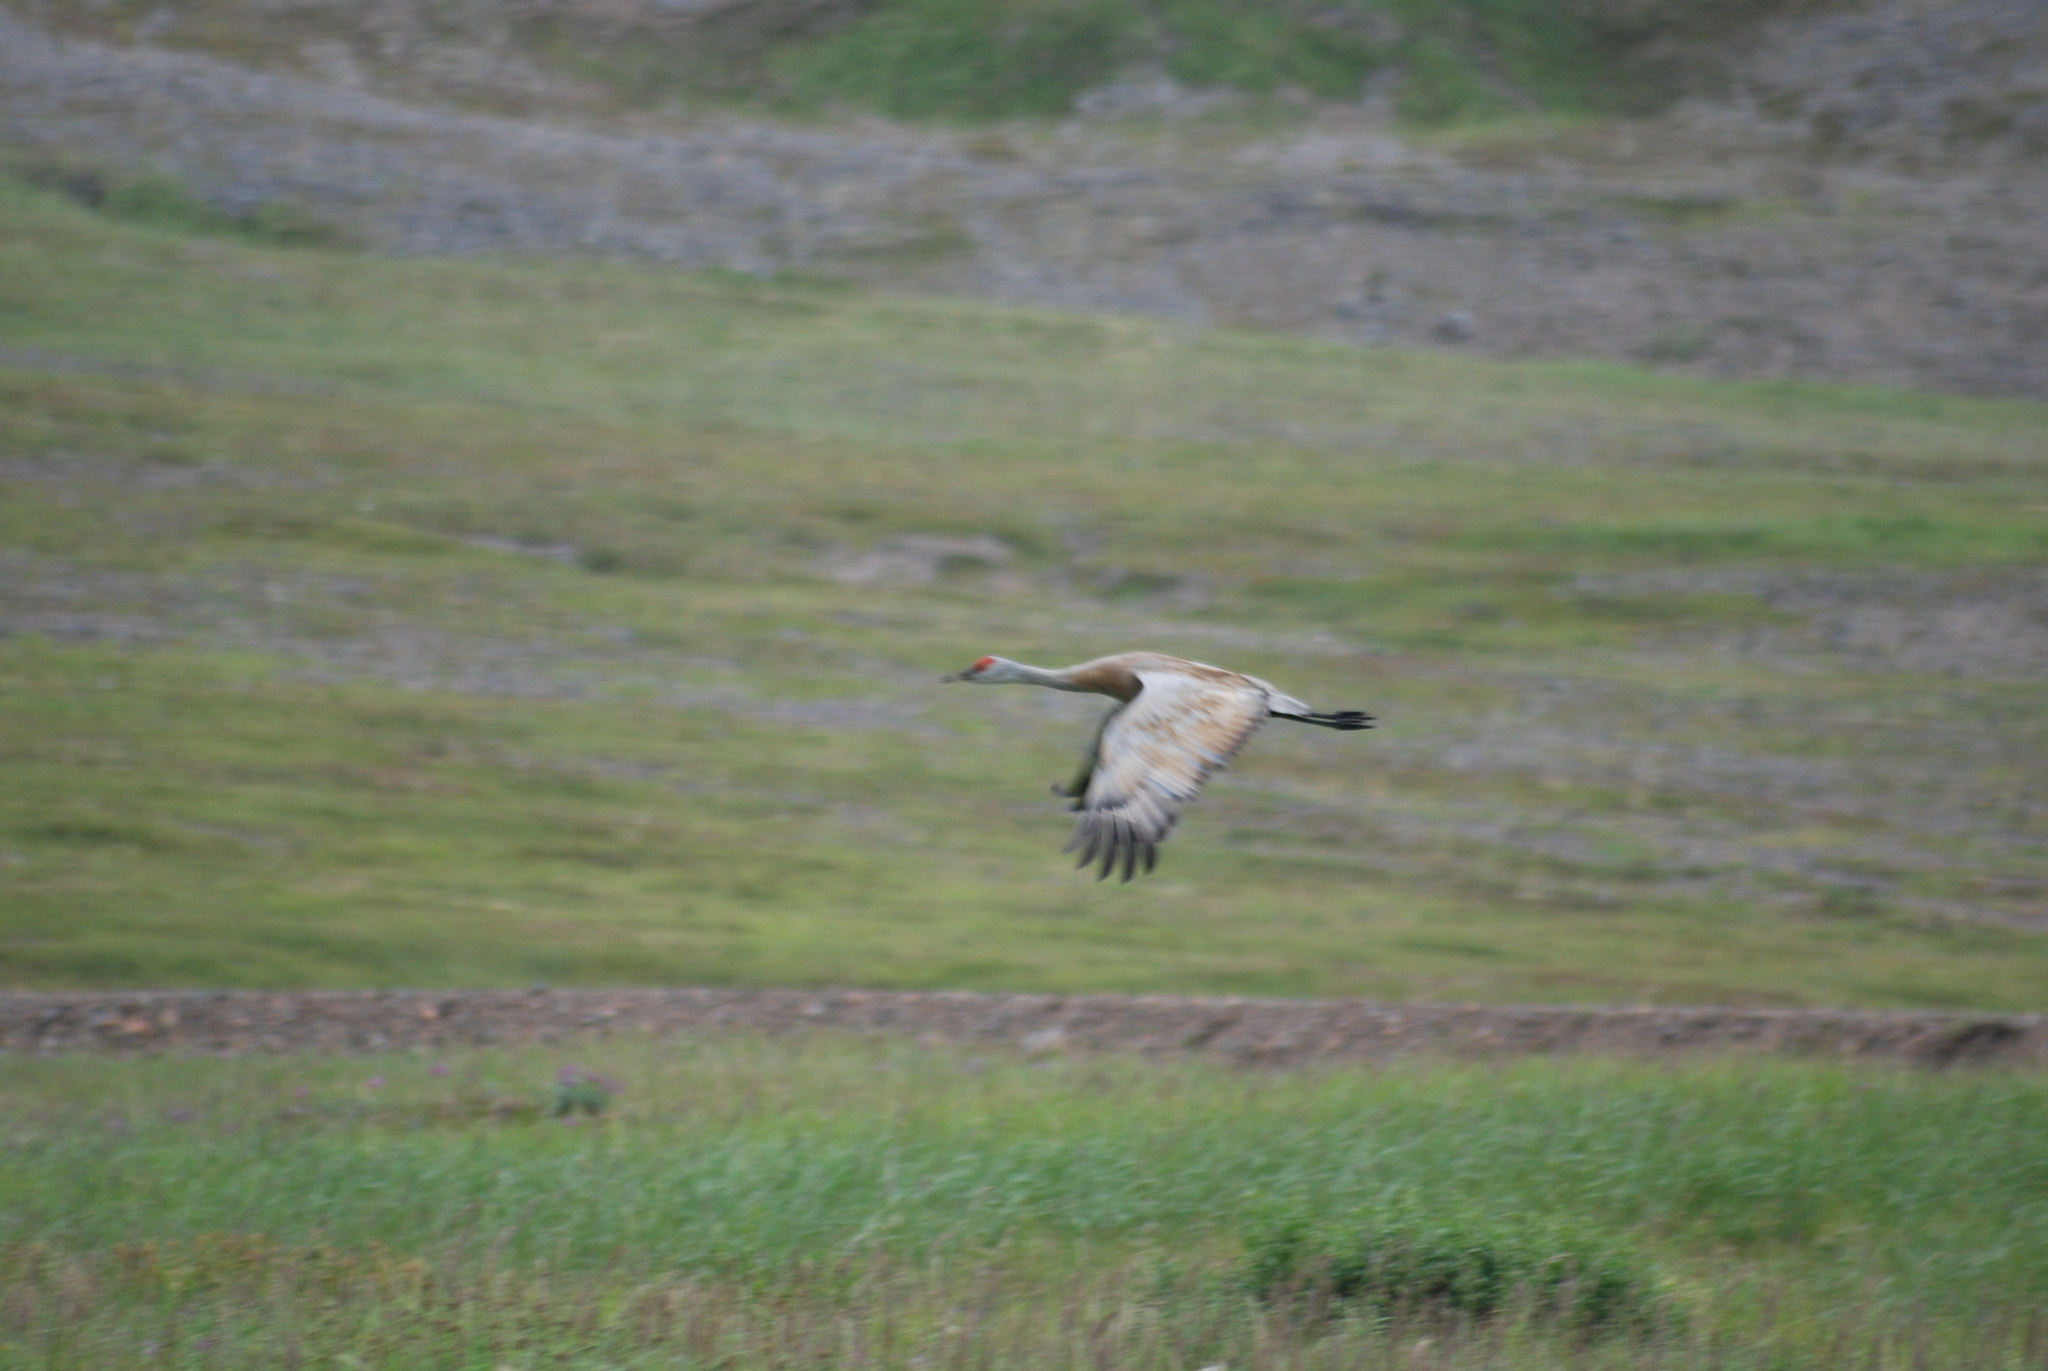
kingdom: Animalia
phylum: Chordata
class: Aves
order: Gruiformes
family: Gruidae
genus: Grus
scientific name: Grus canadensis
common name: Sandhill crane
